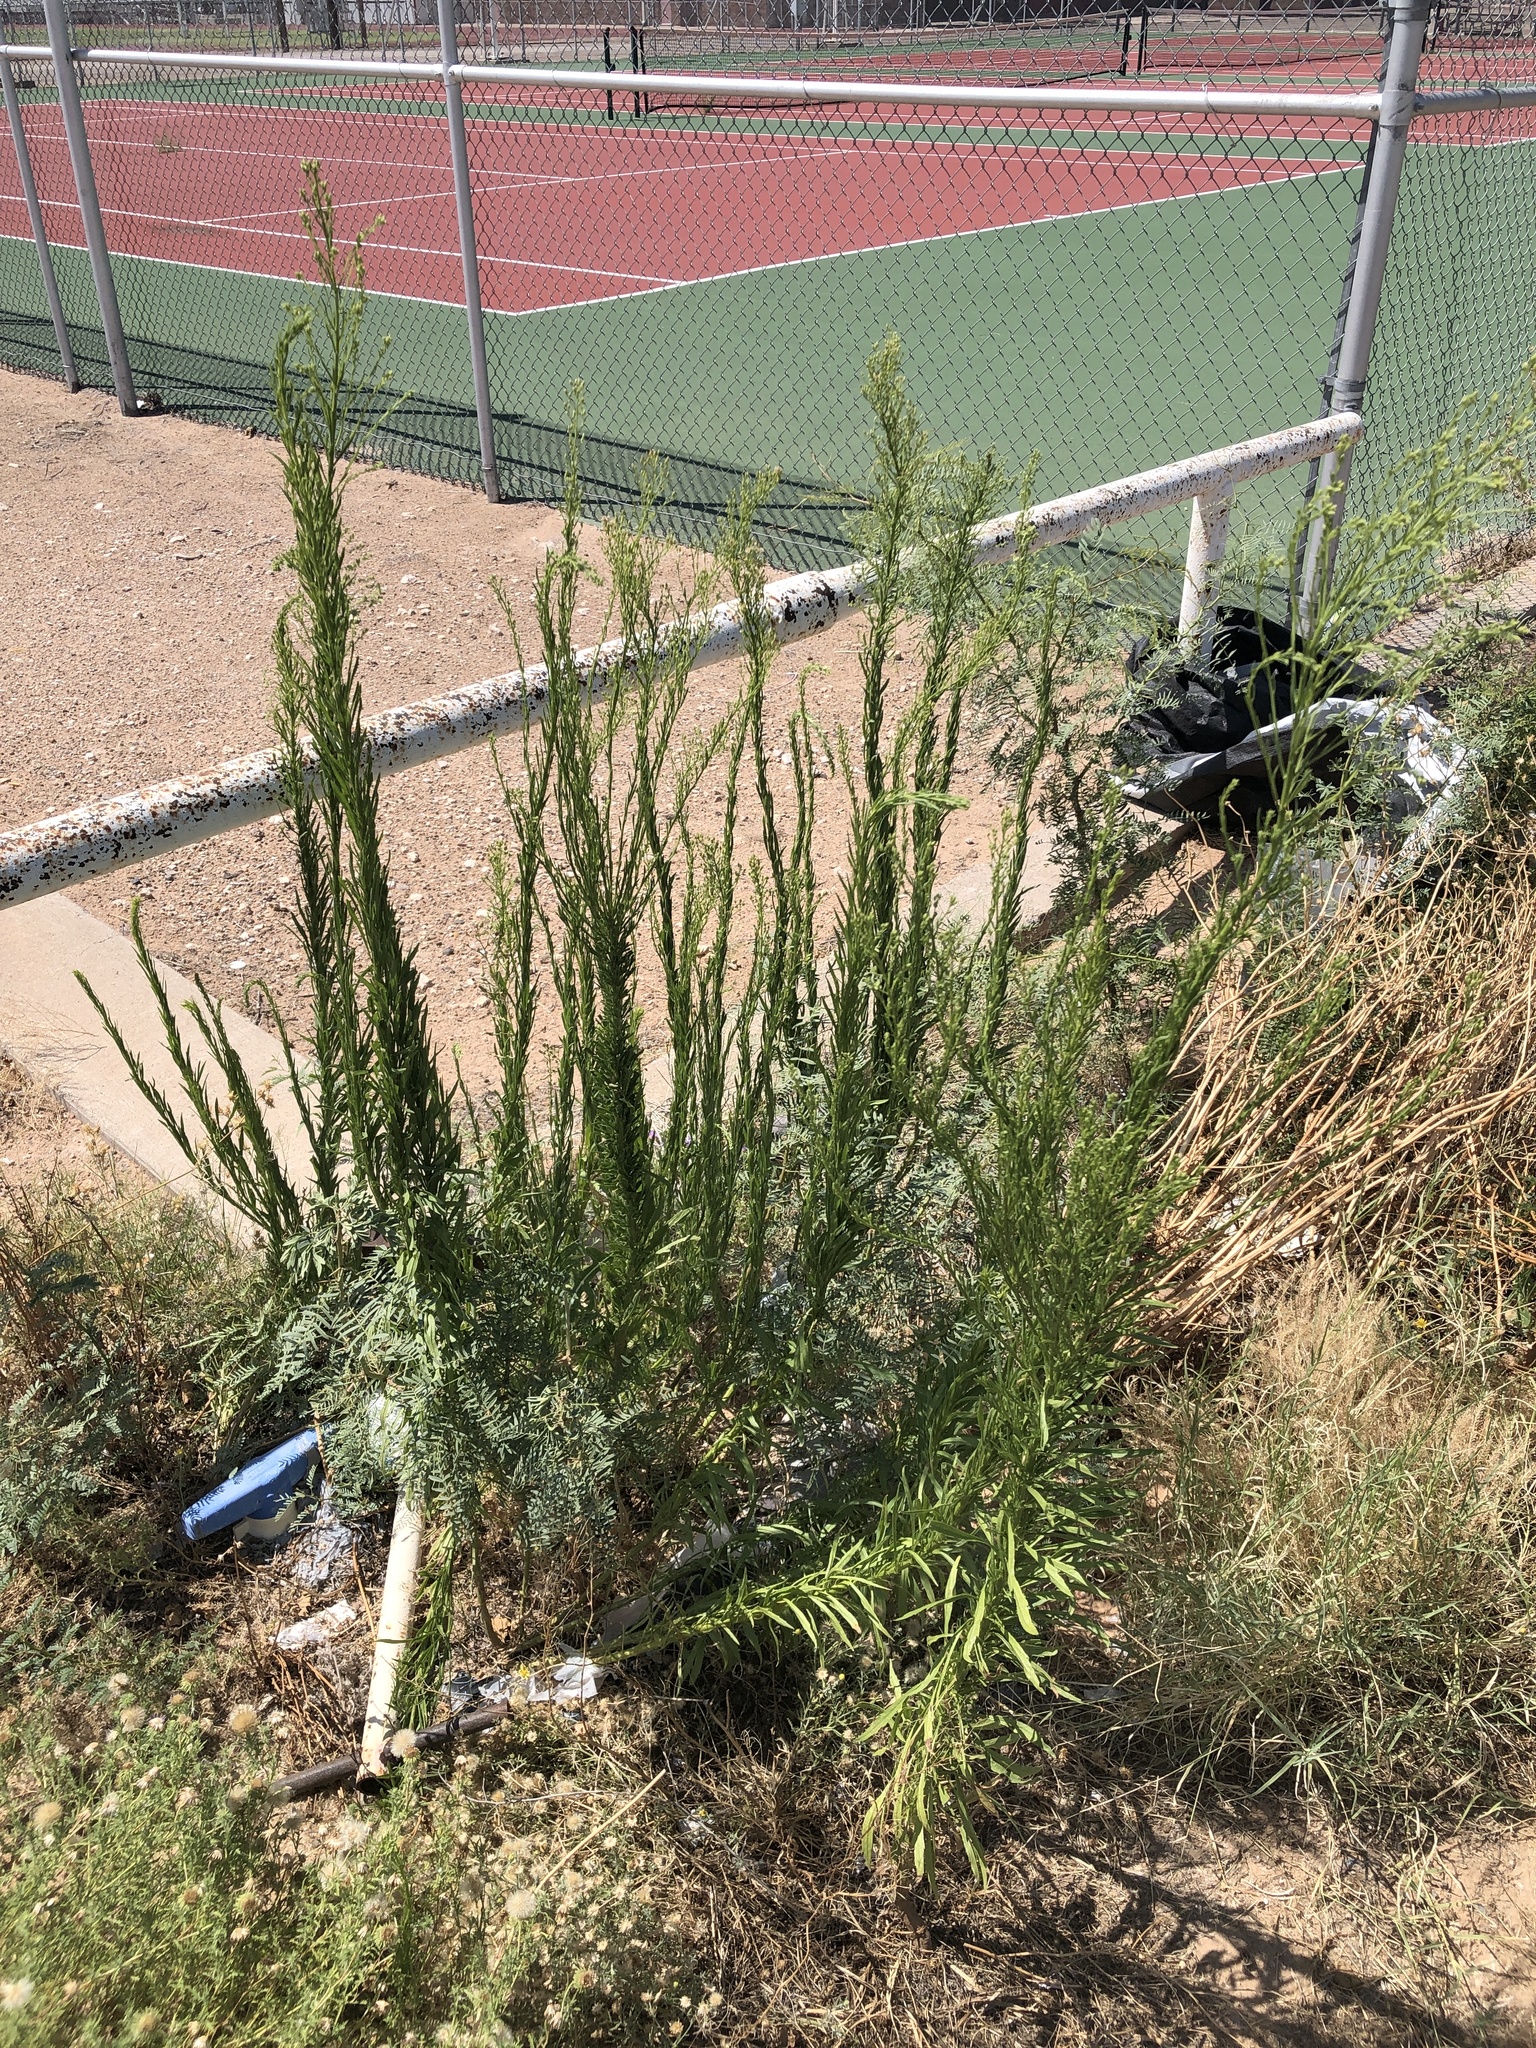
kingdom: Plantae
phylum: Tracheophyta
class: Magnoliopsida
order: Asterales
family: Asteraceae
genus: Erigeron
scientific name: Erigeron canadensis
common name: Canadian fleabane
